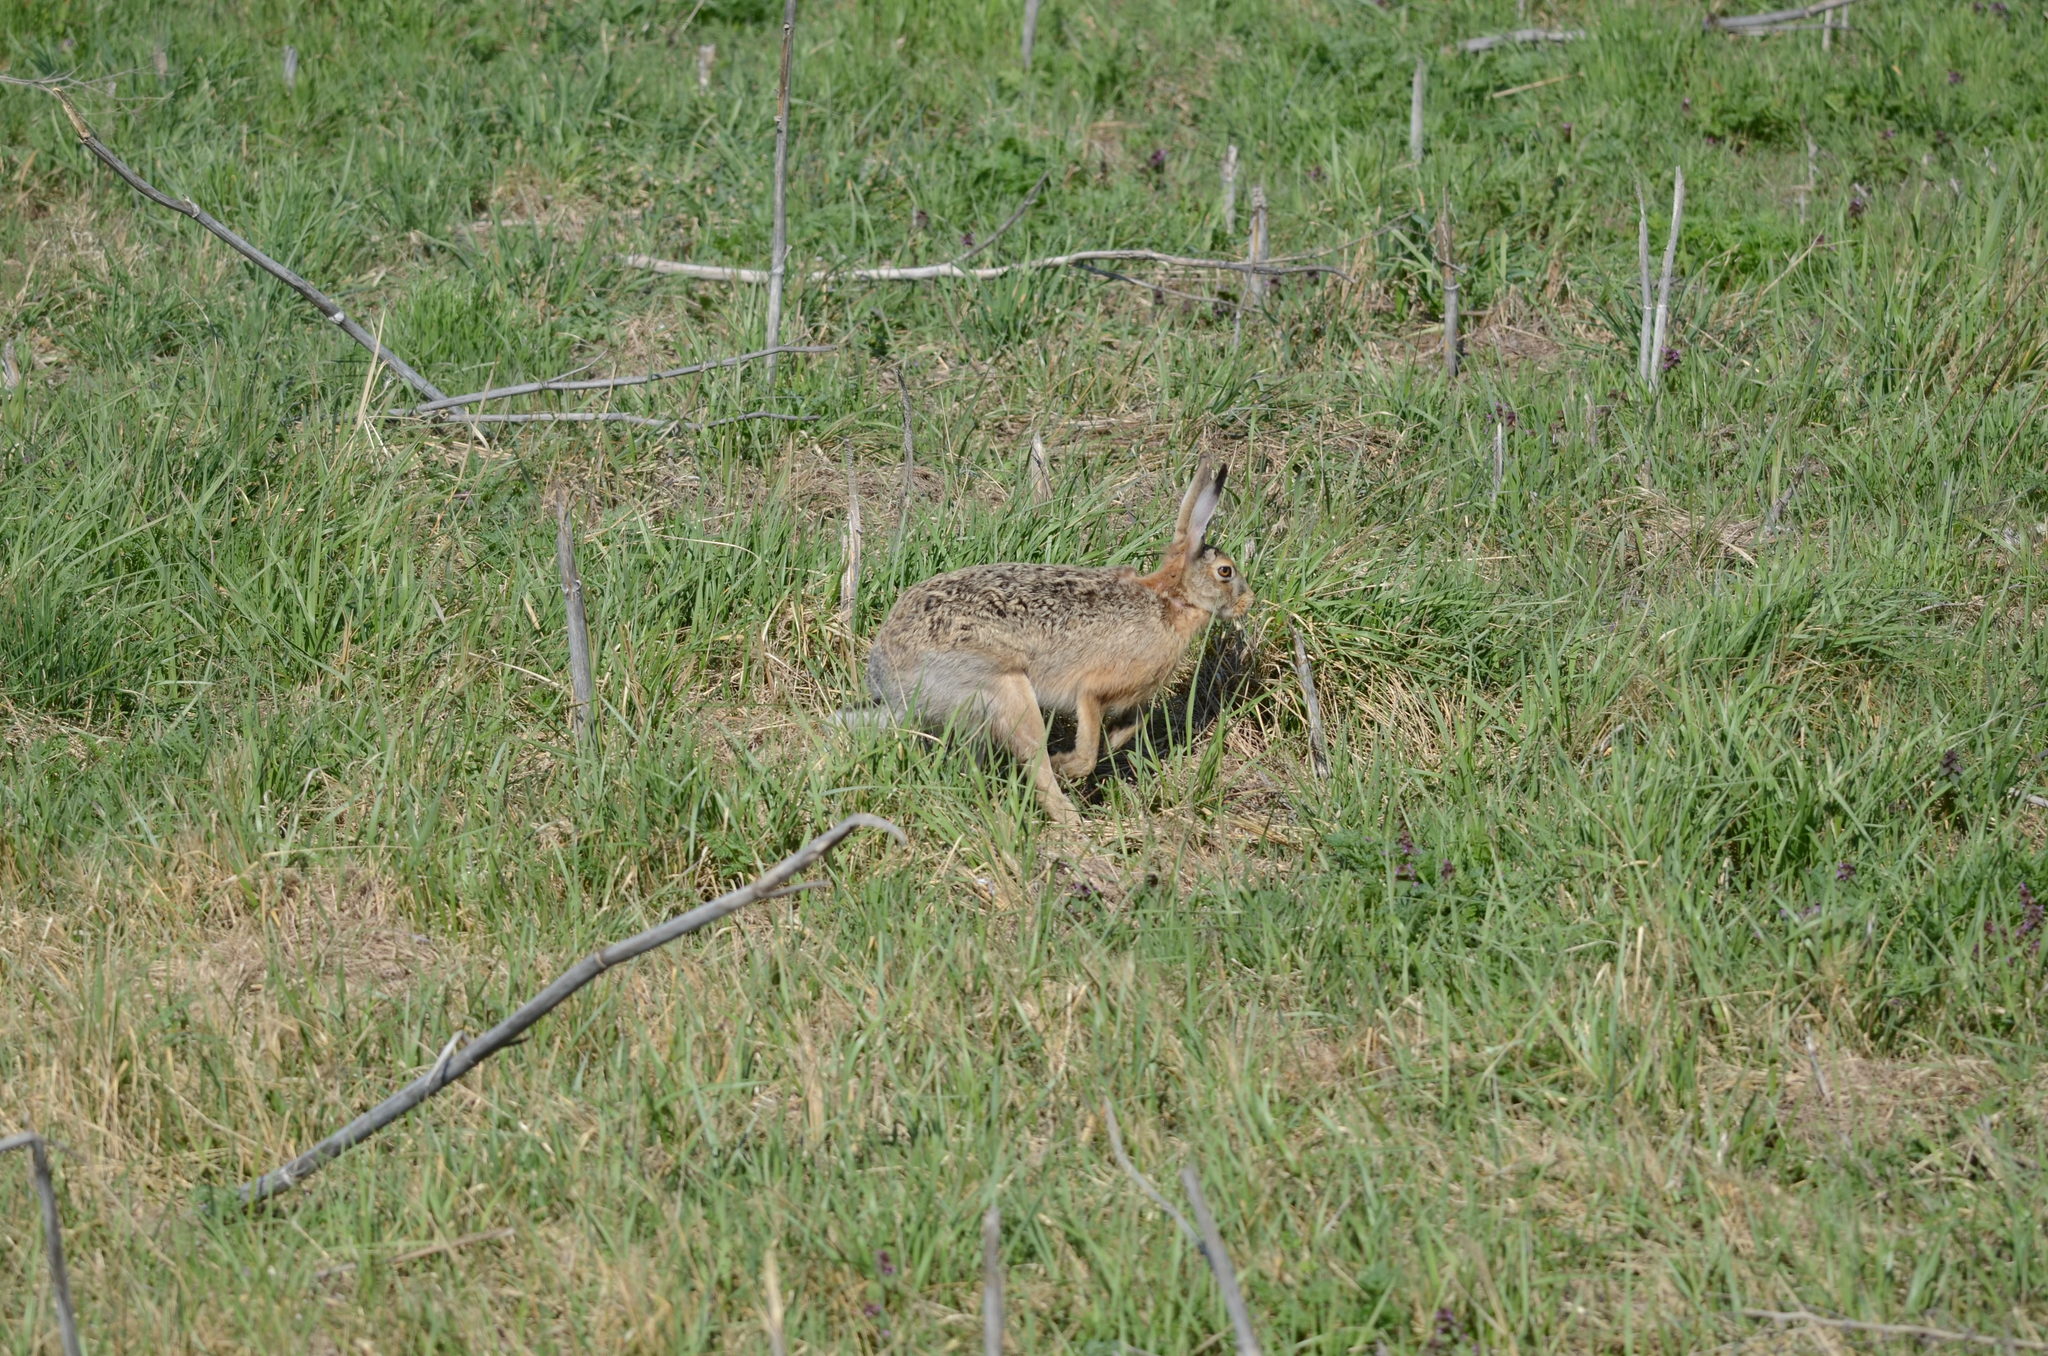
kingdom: Animalia
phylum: Chordata
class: Mammalia
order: Lagomorpha
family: Leporidae
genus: Lepus
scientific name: Lepus europaeus
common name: European hare
